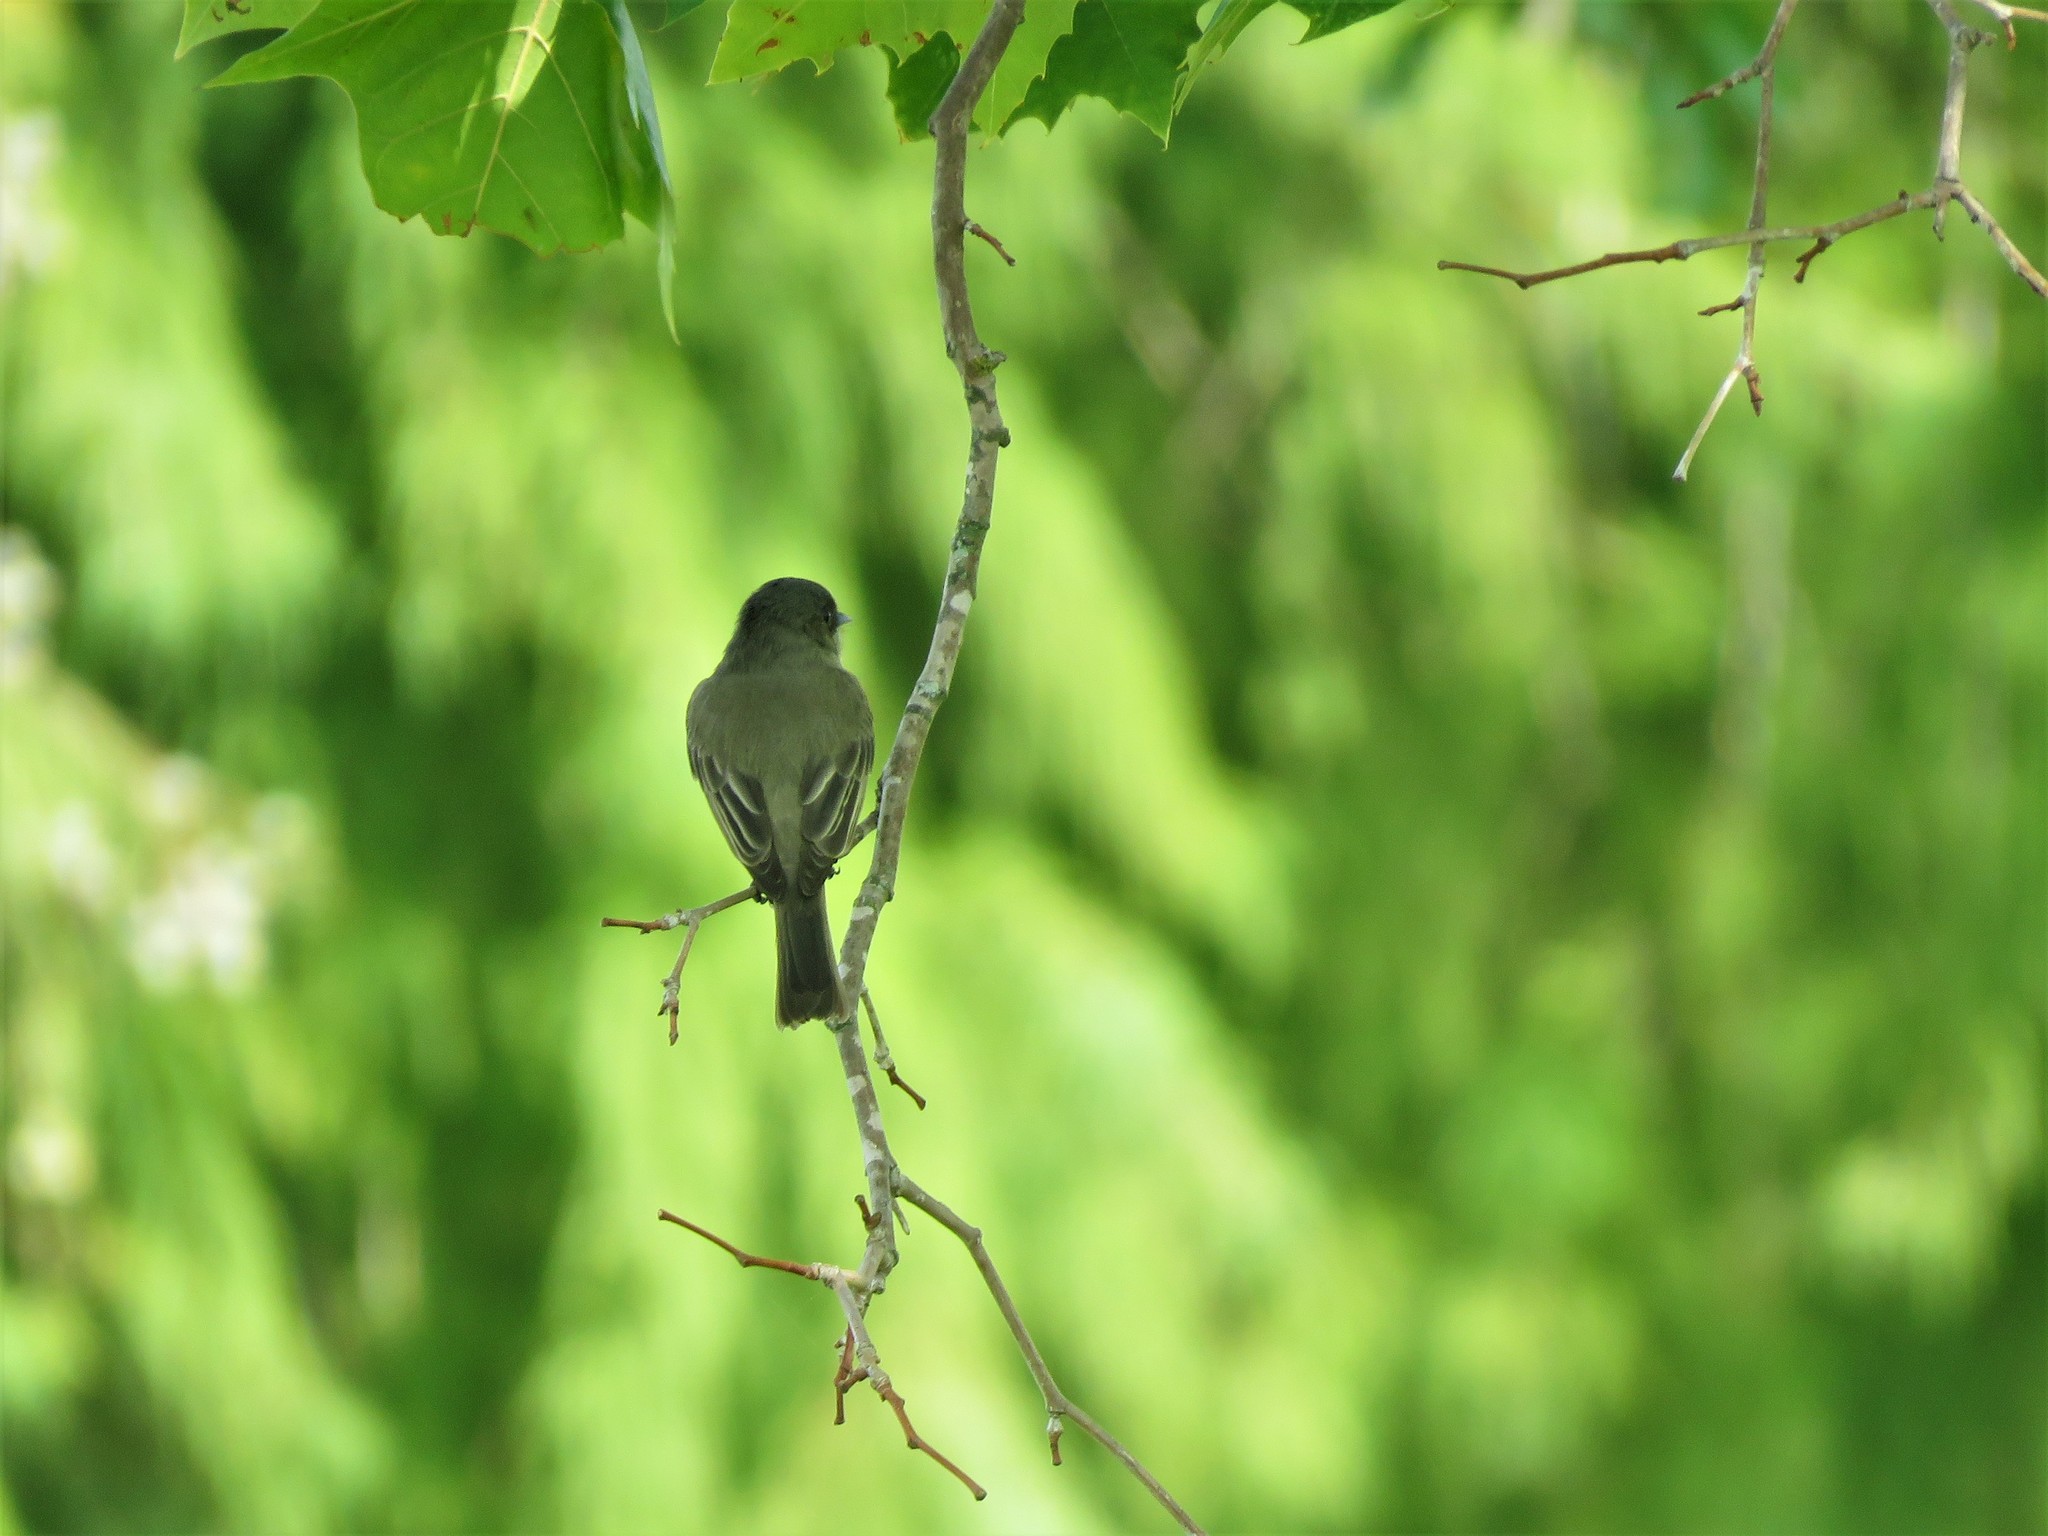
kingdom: Animalia
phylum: Chordata
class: Aves
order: Passeriformes
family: Tyrannidae
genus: Sayornis
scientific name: Sayornis phoebe
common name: Eastern phoebe
